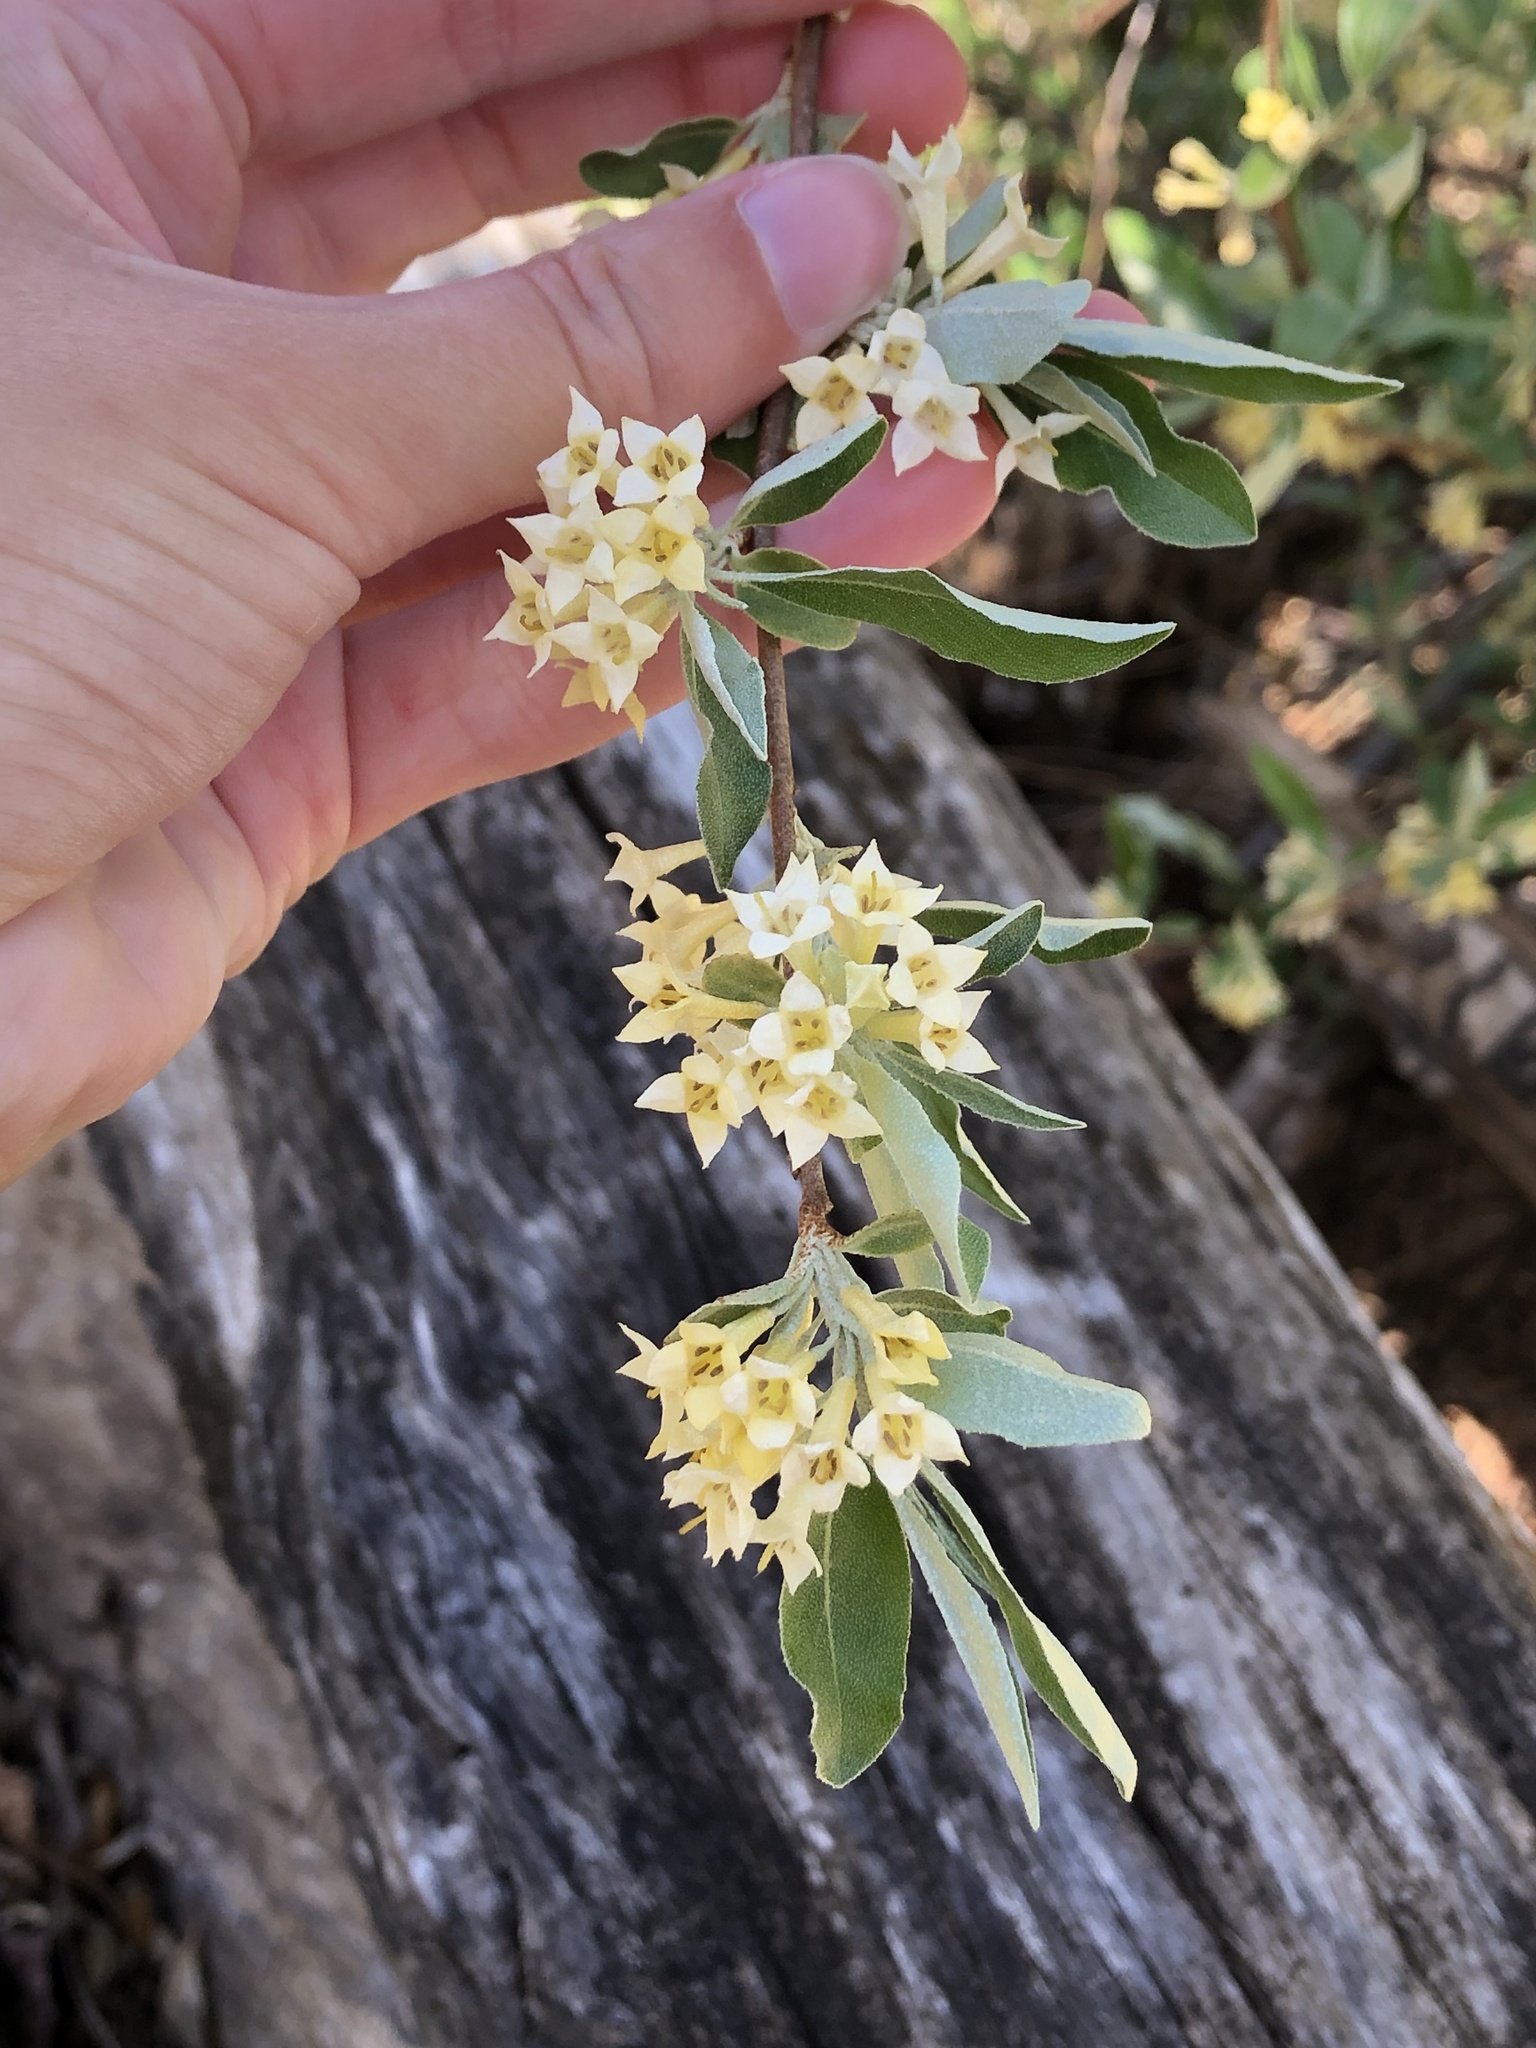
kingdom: Plantae
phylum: Tracheophyta
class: Magnoliopsida
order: Rosales
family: Elaeagnaceae
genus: Elaeagnus
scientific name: Elaeagnus umbellata
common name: Autumn olive
